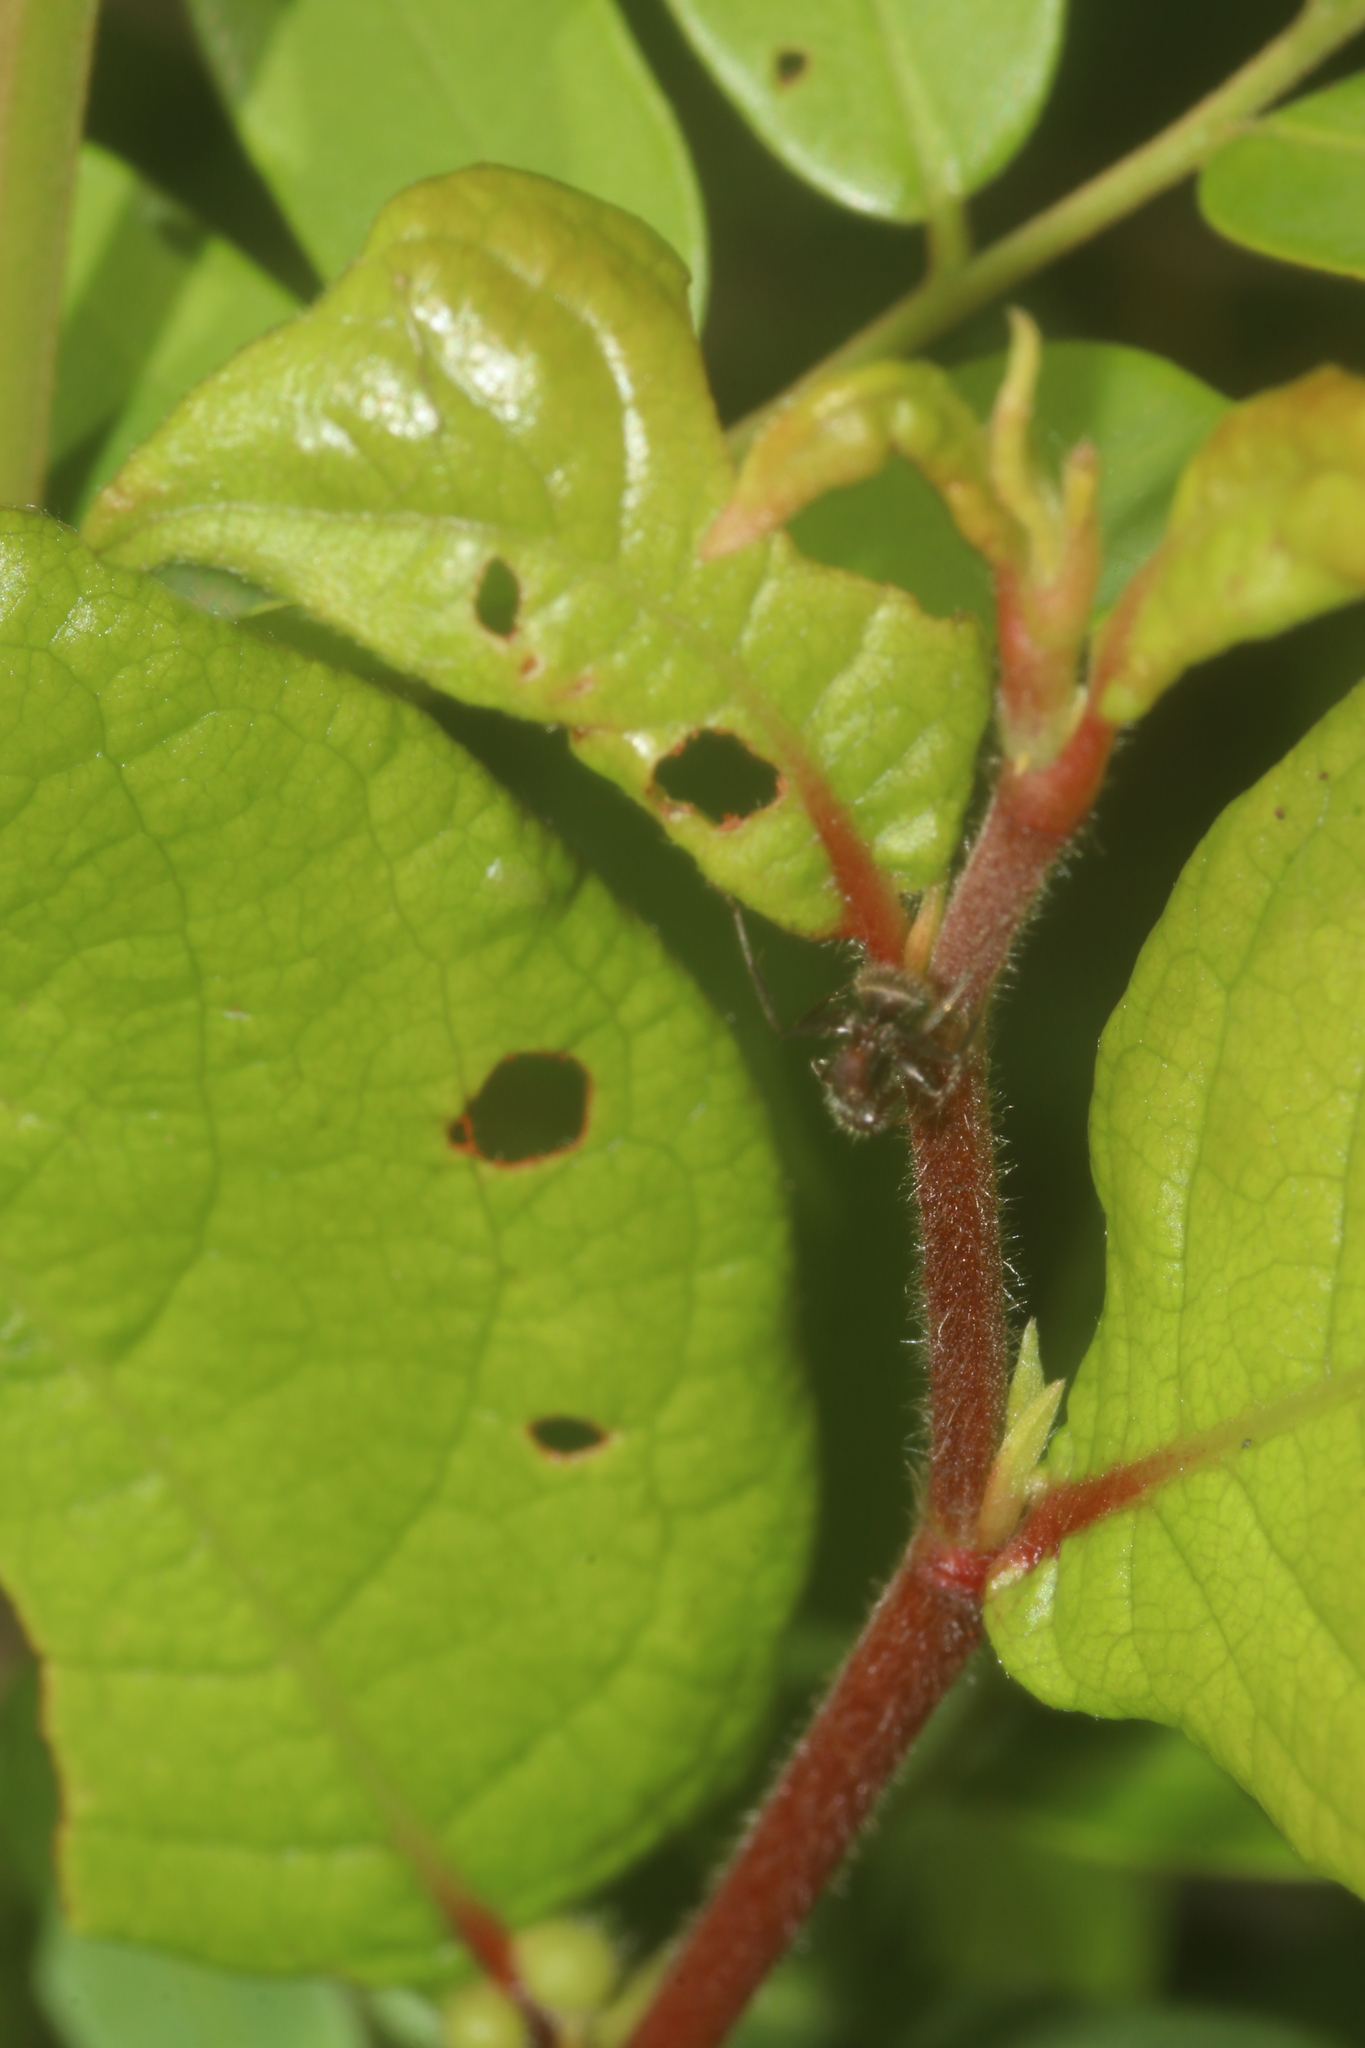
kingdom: Animalia
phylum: Arthropoda
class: Insecta
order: Hymenoptera
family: Formicidae
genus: Camponotus
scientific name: Camponotus planatus
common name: Compact carpenter ant
